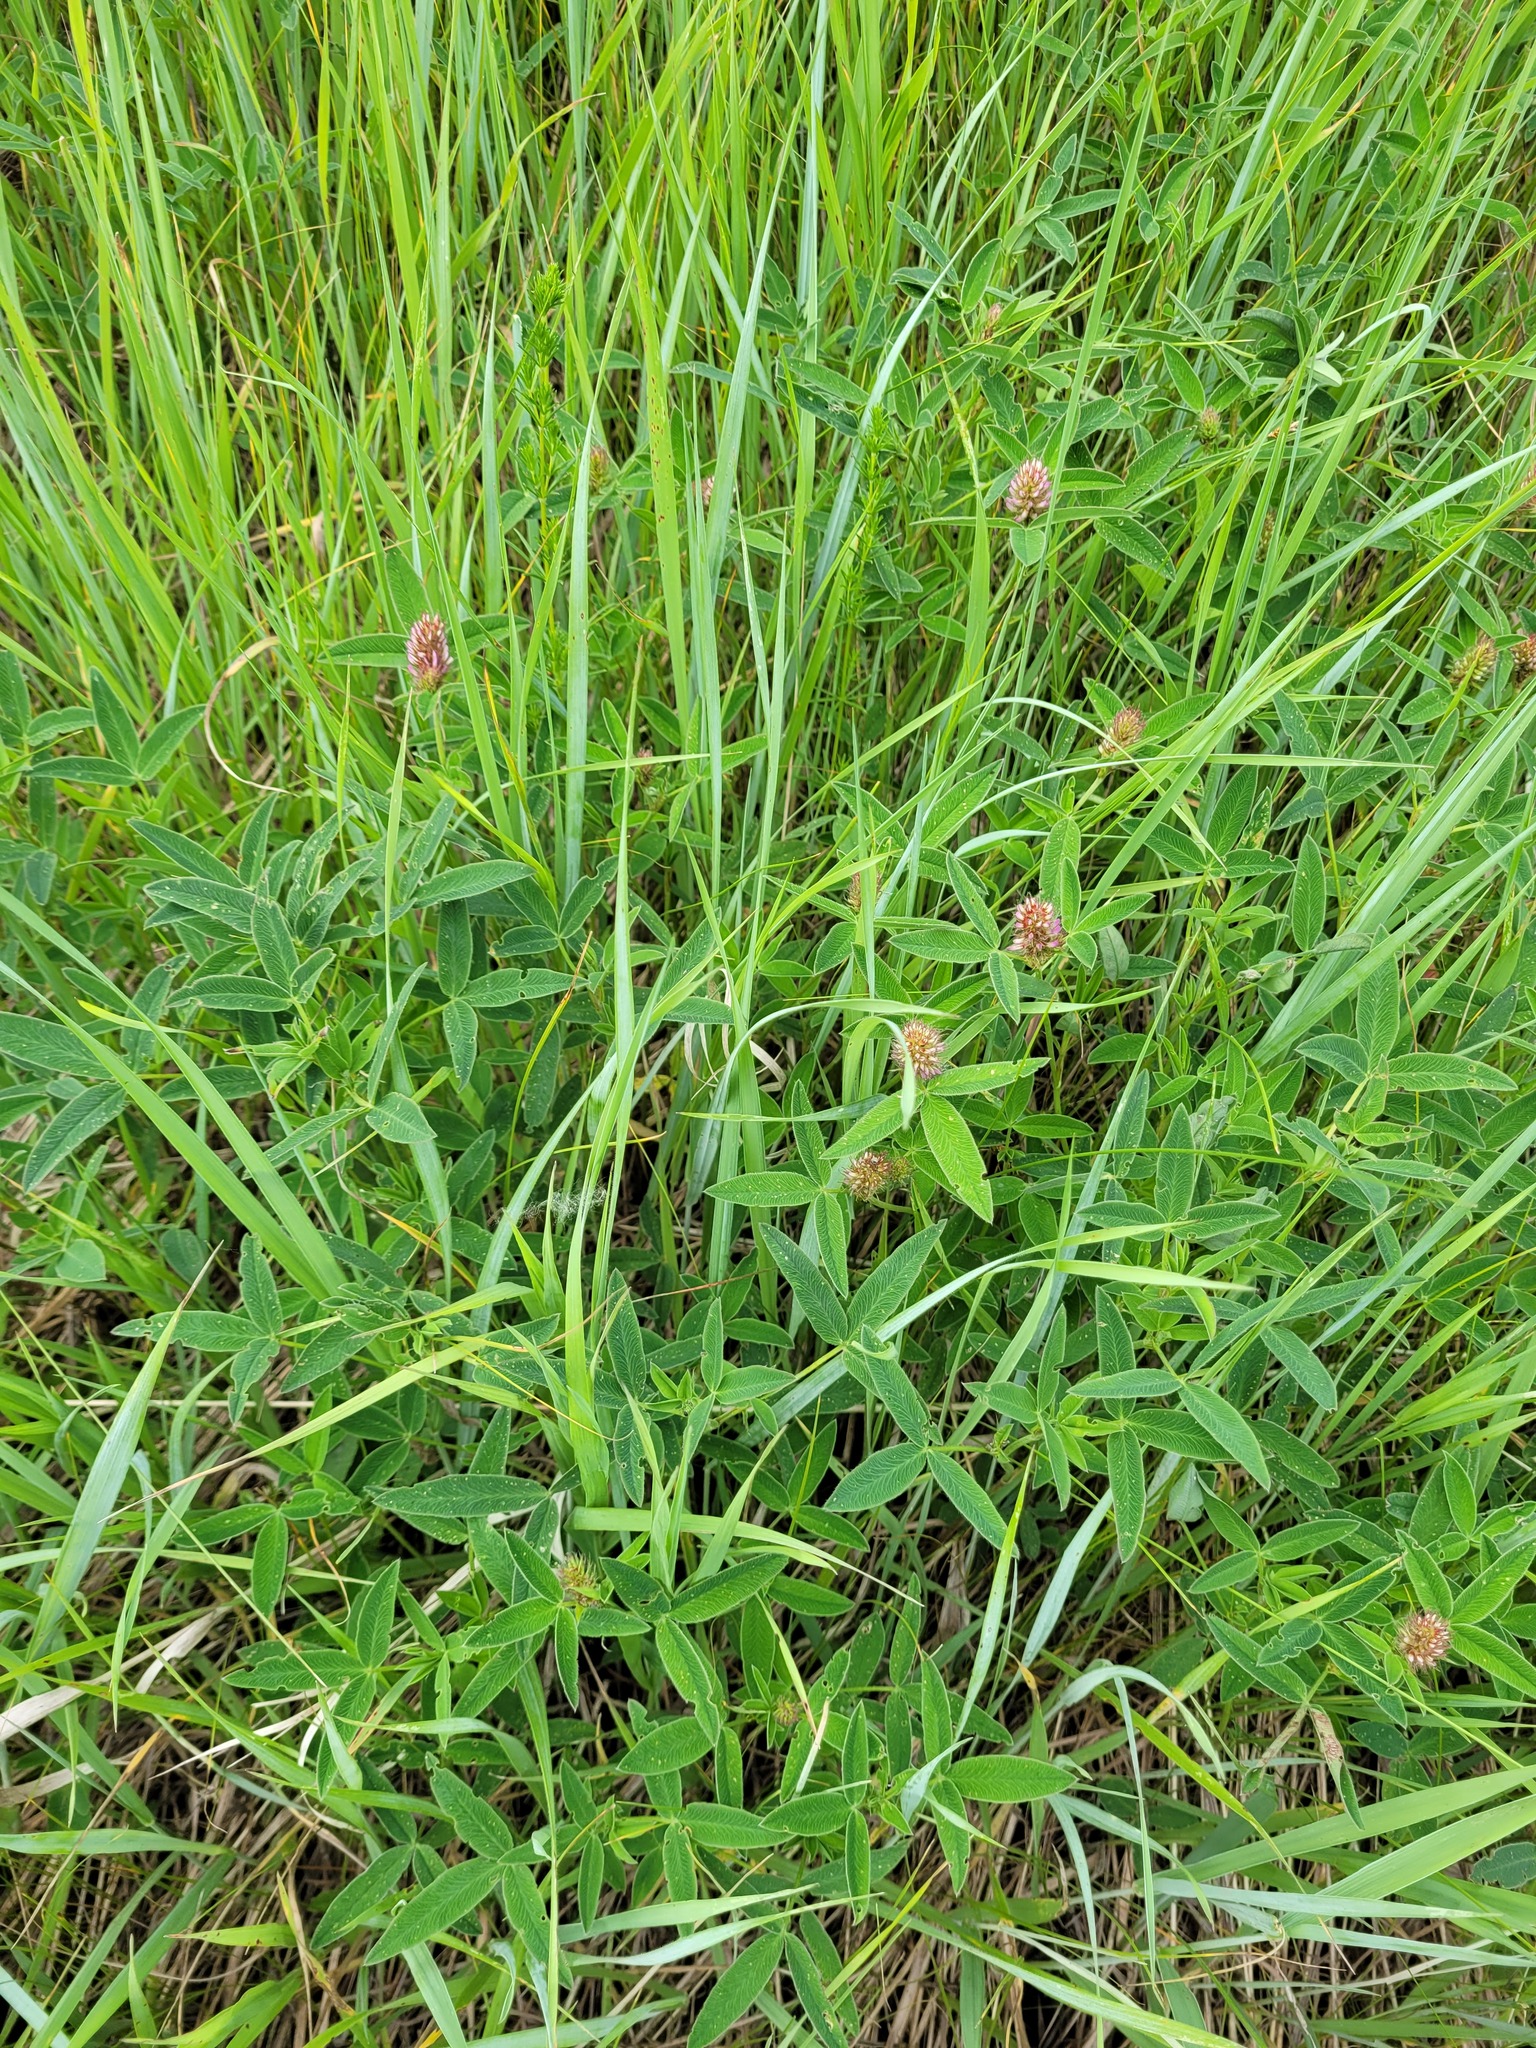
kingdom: Plantae
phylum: Tracheophyta
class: Magnoliopsida
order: Fabales
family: Fabaceae
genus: Trifolium
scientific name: Trifolium medium
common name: Zigzag clover
